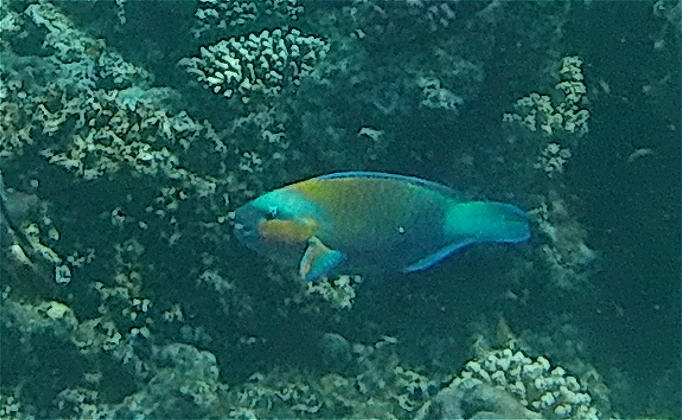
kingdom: Animalia
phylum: Chordata
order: Perciformes
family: Scaridae
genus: Chlorurus
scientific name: Chlorurus sordidus
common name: Bullethead parrotfish
